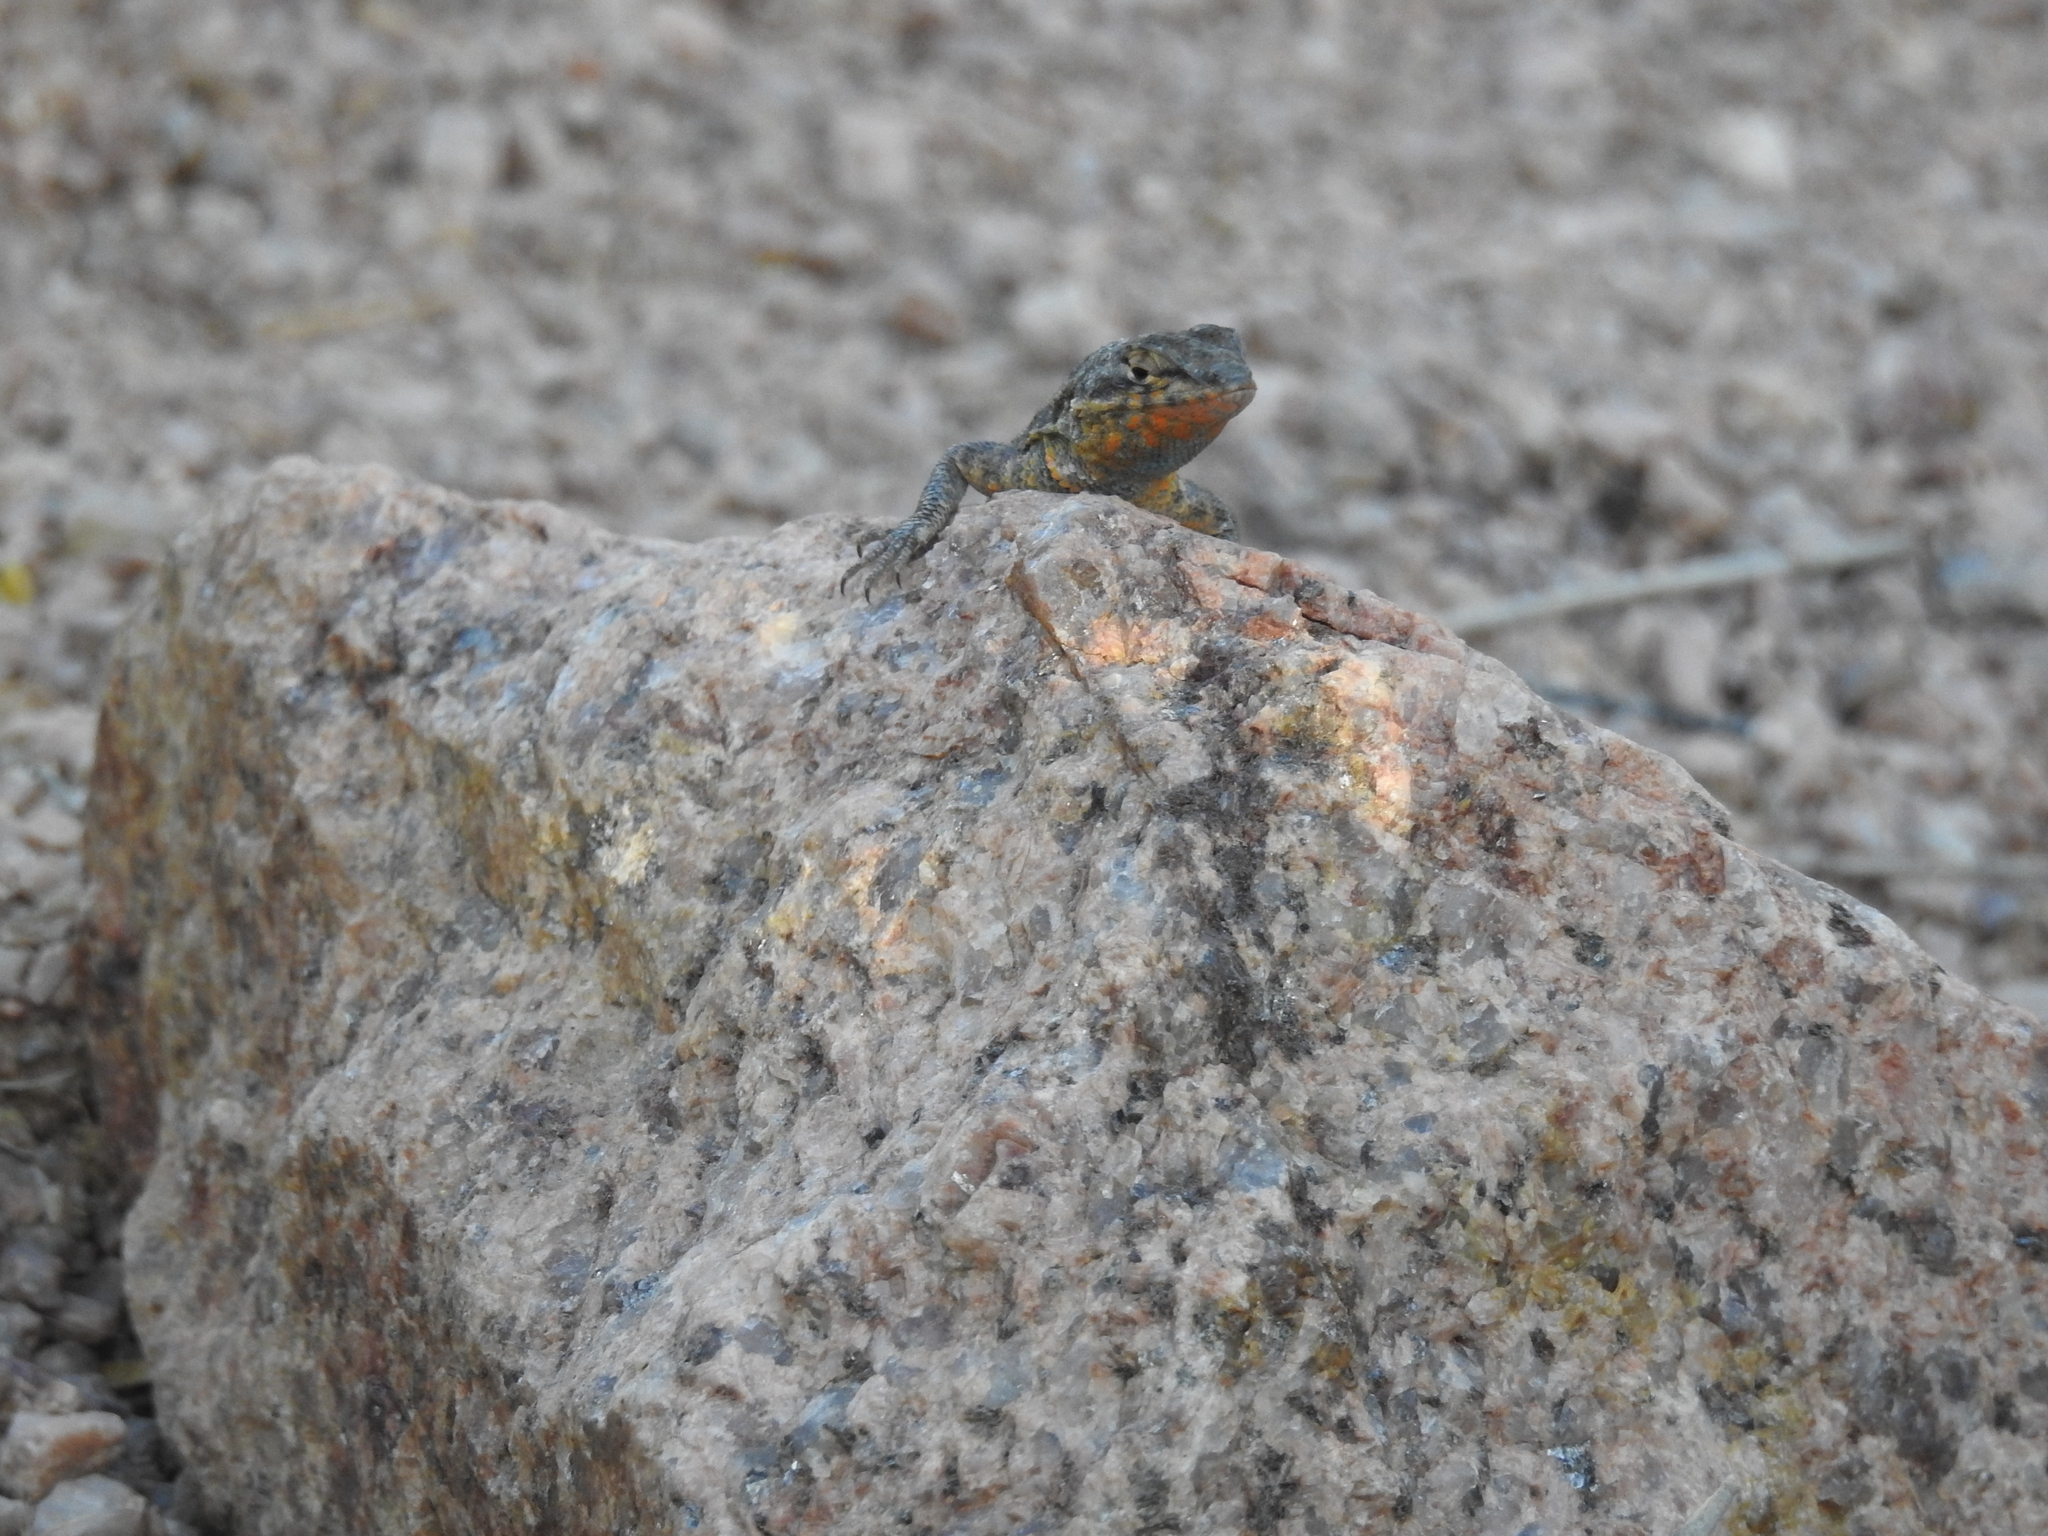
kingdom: Animalia
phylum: Chordata
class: Squamata
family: Phrynosomatidae
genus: Uta
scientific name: Uta stansburiana
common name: Side-blotched lizard
